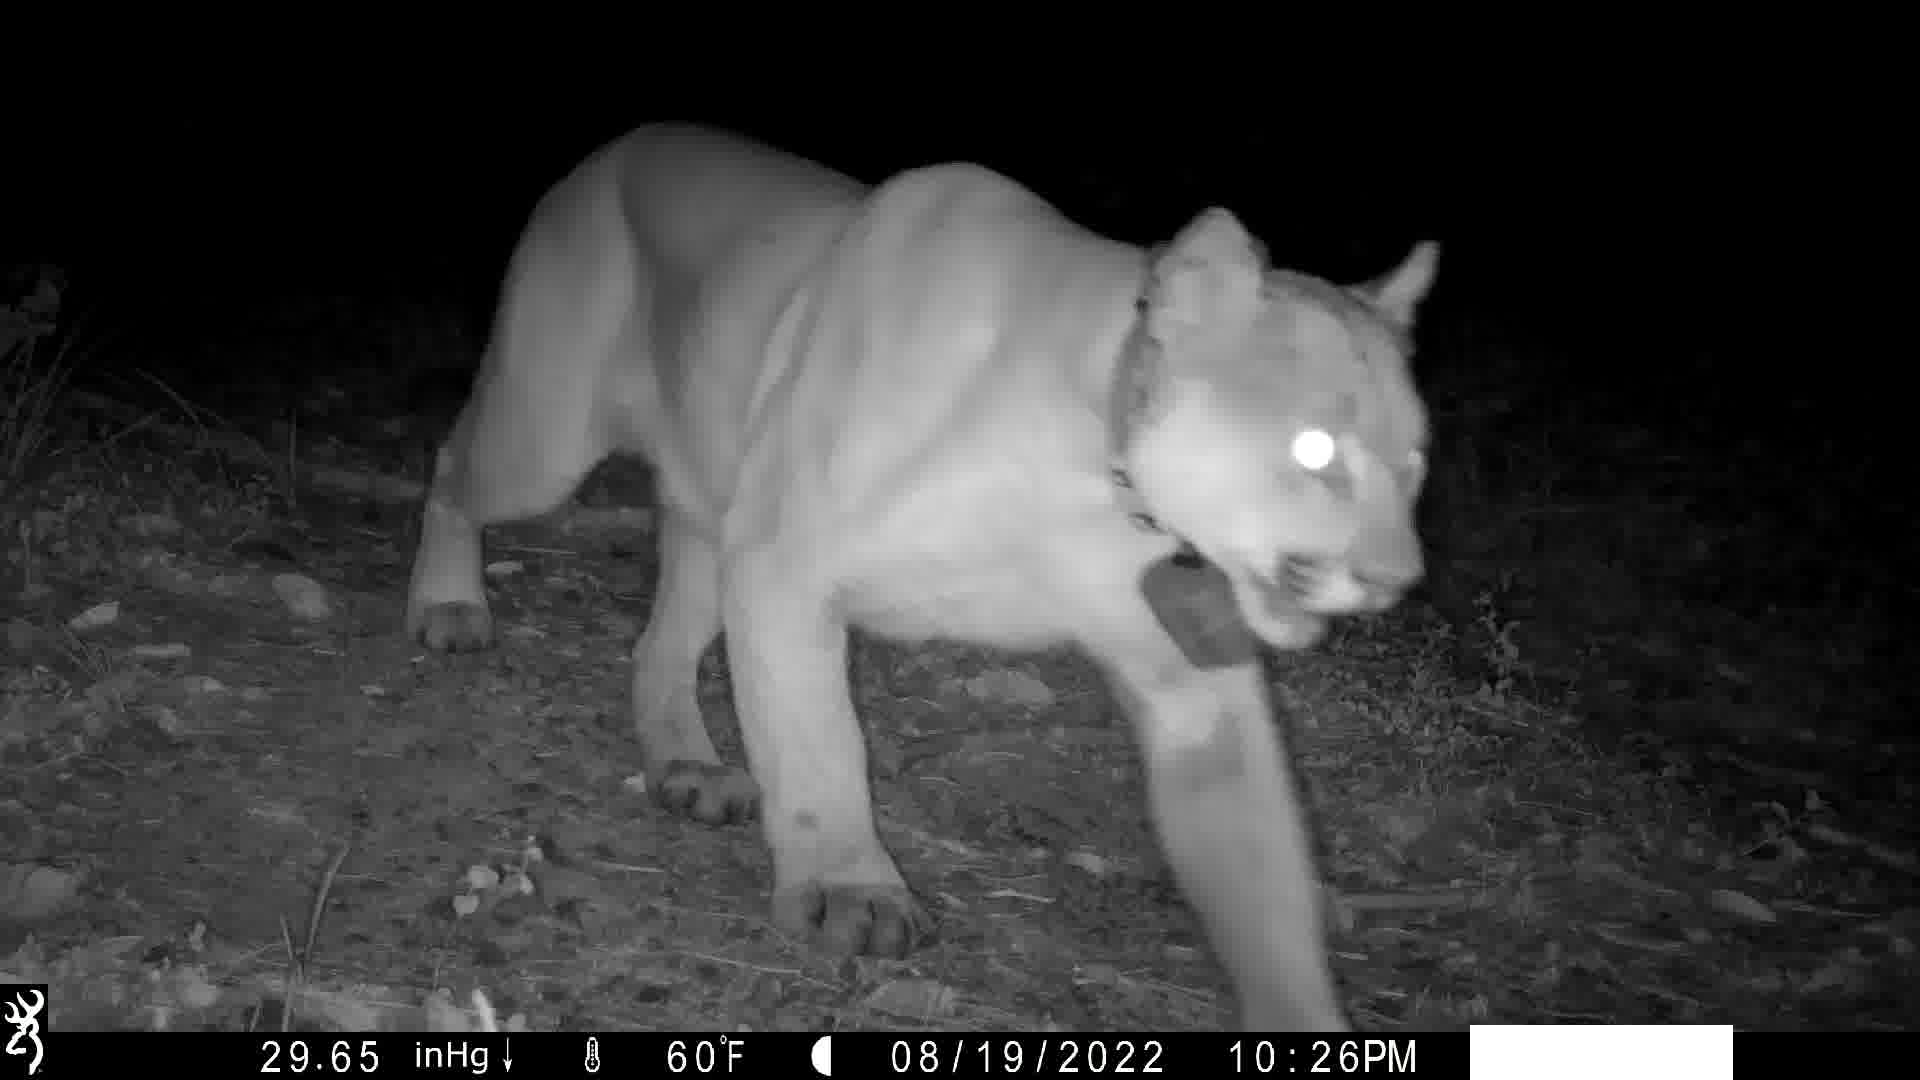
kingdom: Animalia
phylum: Chordata
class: Mammalia
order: Carnivora
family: Felidae
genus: Puma
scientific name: Puma concolor
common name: Puma
